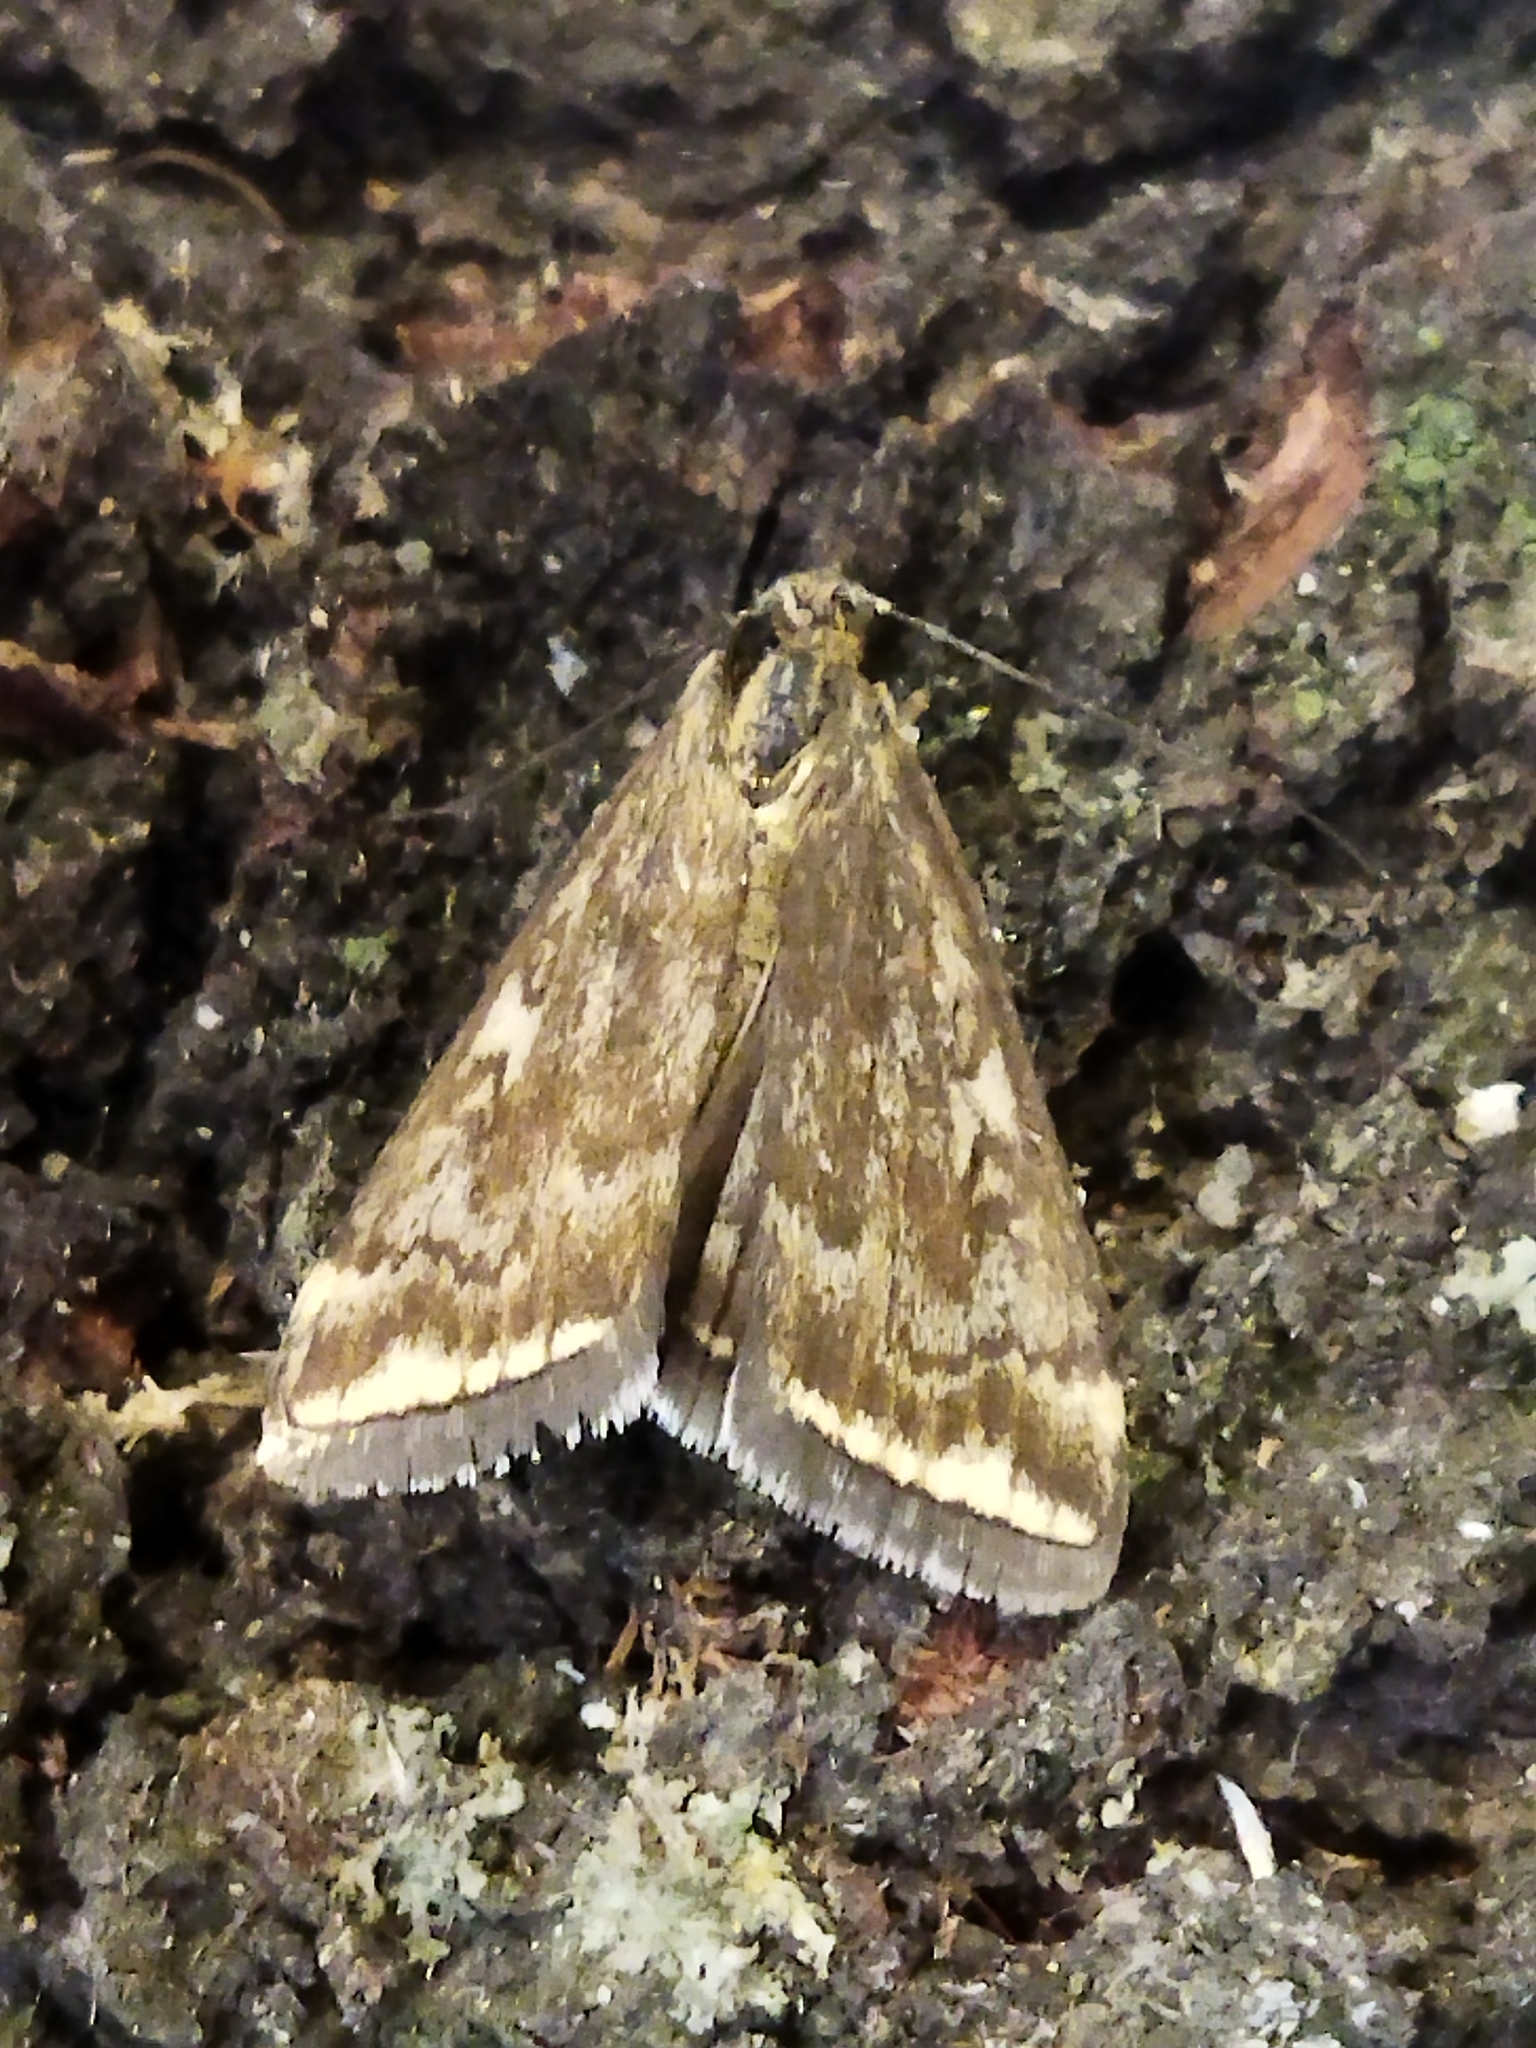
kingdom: Animalia
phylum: Arthropoda
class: Insecta
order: Lepidoptera
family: Crambidae
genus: Loxostege
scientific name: Loxostege sticticalis
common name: Crambid moth
